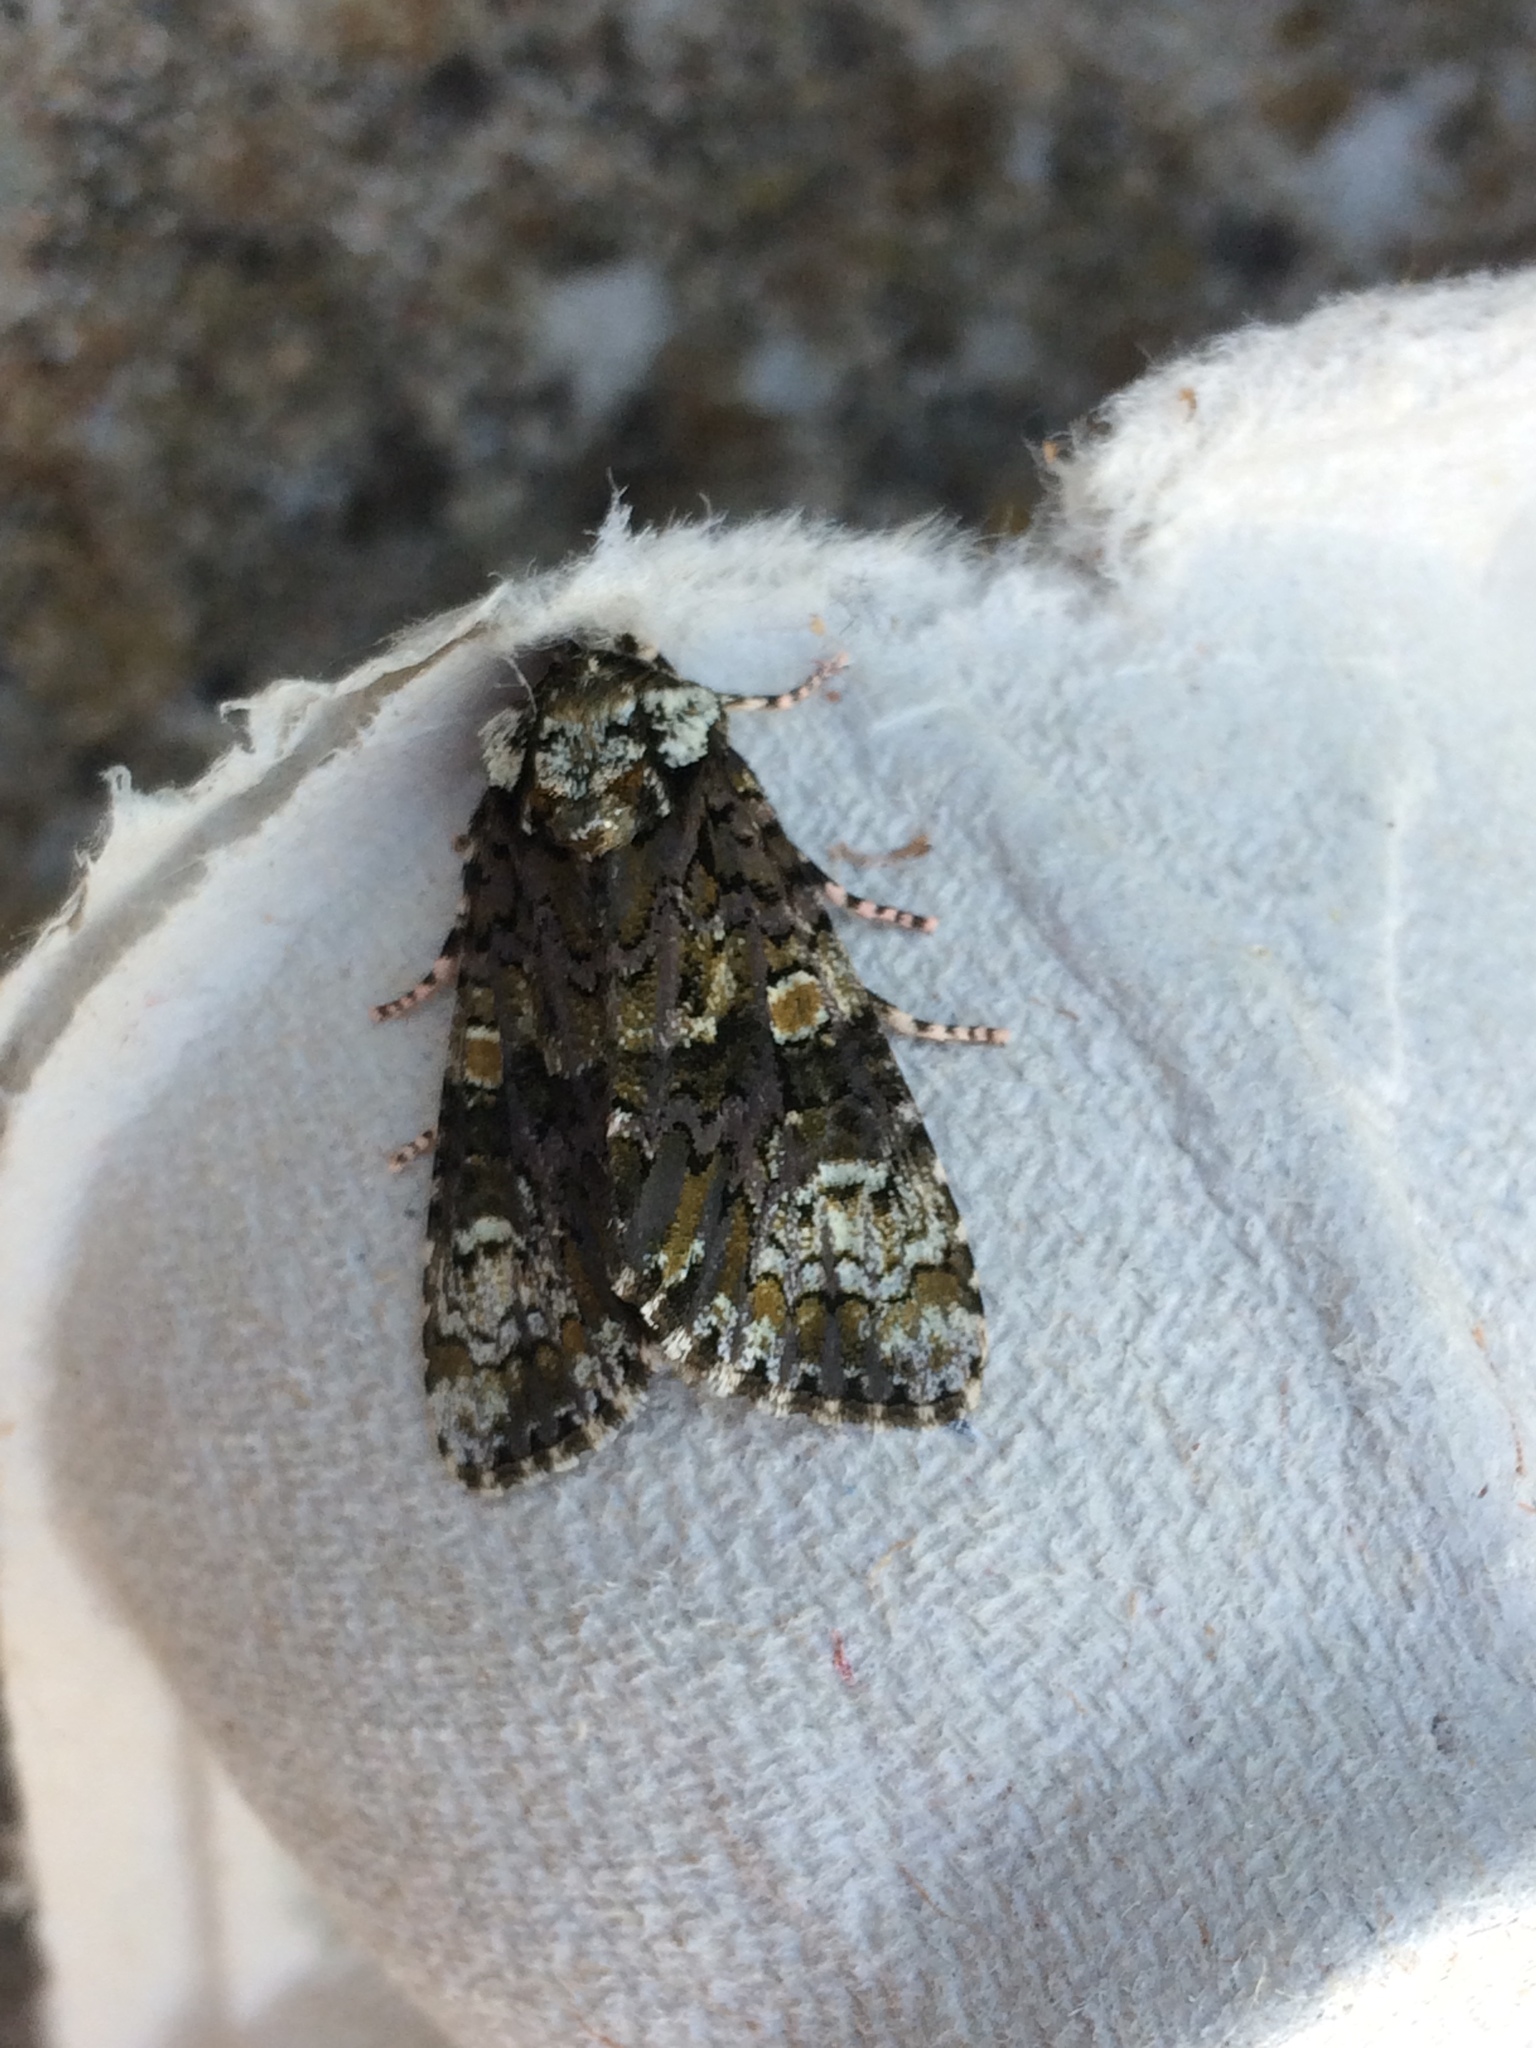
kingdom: Animalia
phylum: Arthropoda
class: Insecta
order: Lepidoptera
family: Noctuidae
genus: Craniophora
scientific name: Craniophora ligustri
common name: Coronet
